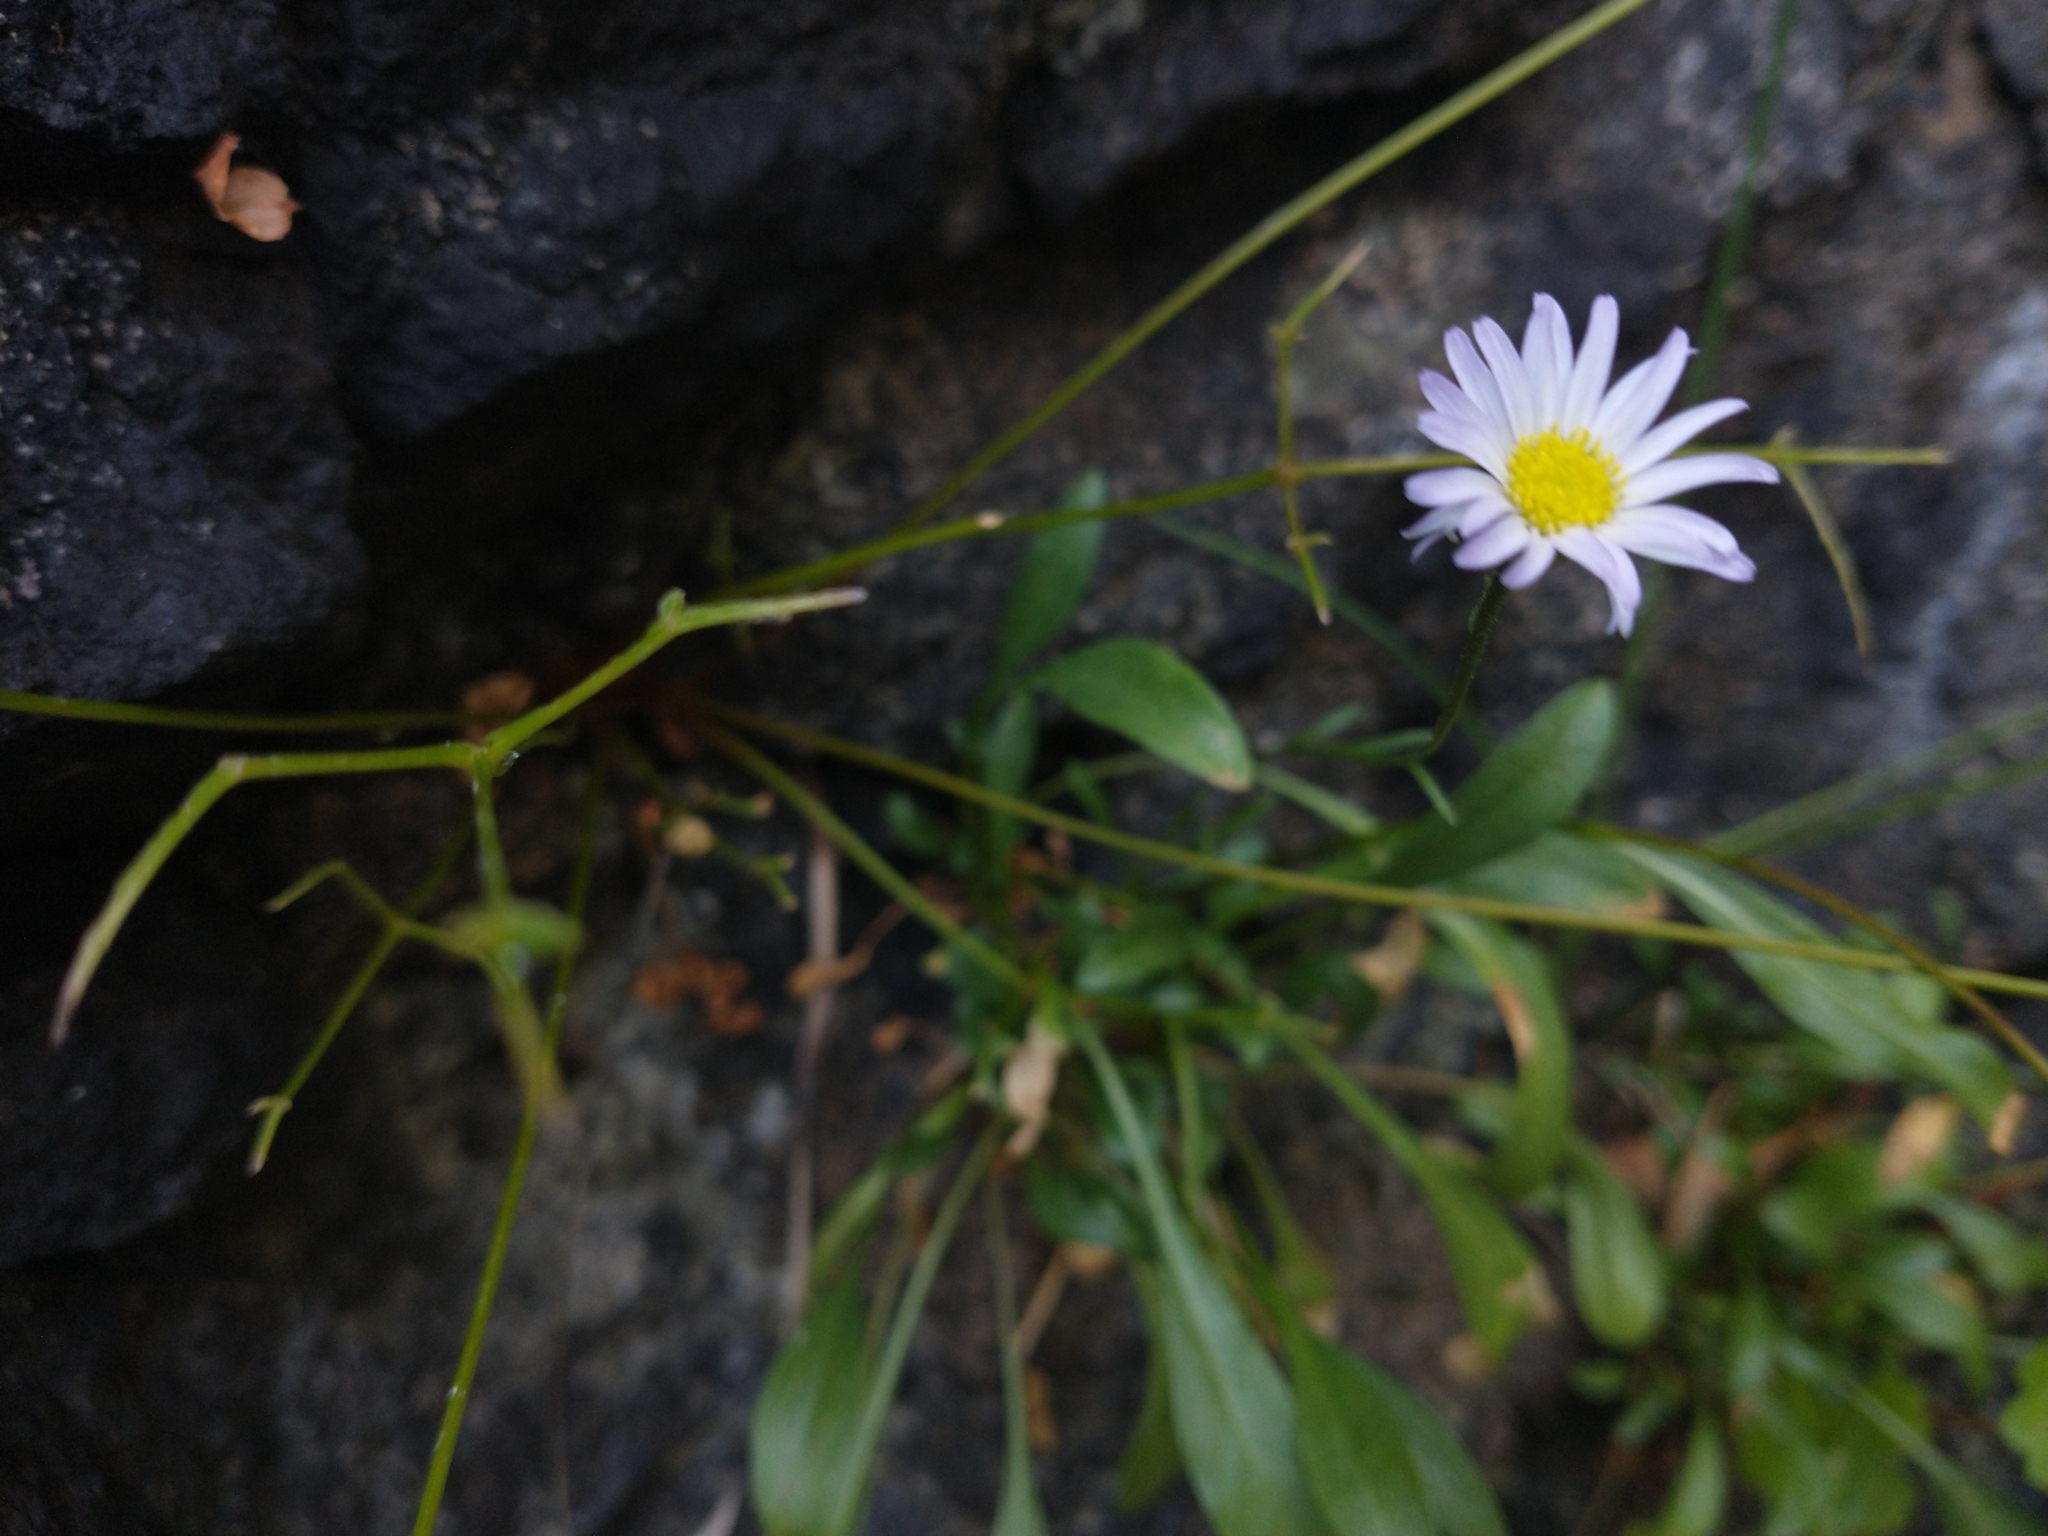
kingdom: Plantae
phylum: Tracheophyta
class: Magnoliopsida
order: Asterales
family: Asteraceae
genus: Erigeron
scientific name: Erigeron cervinus
